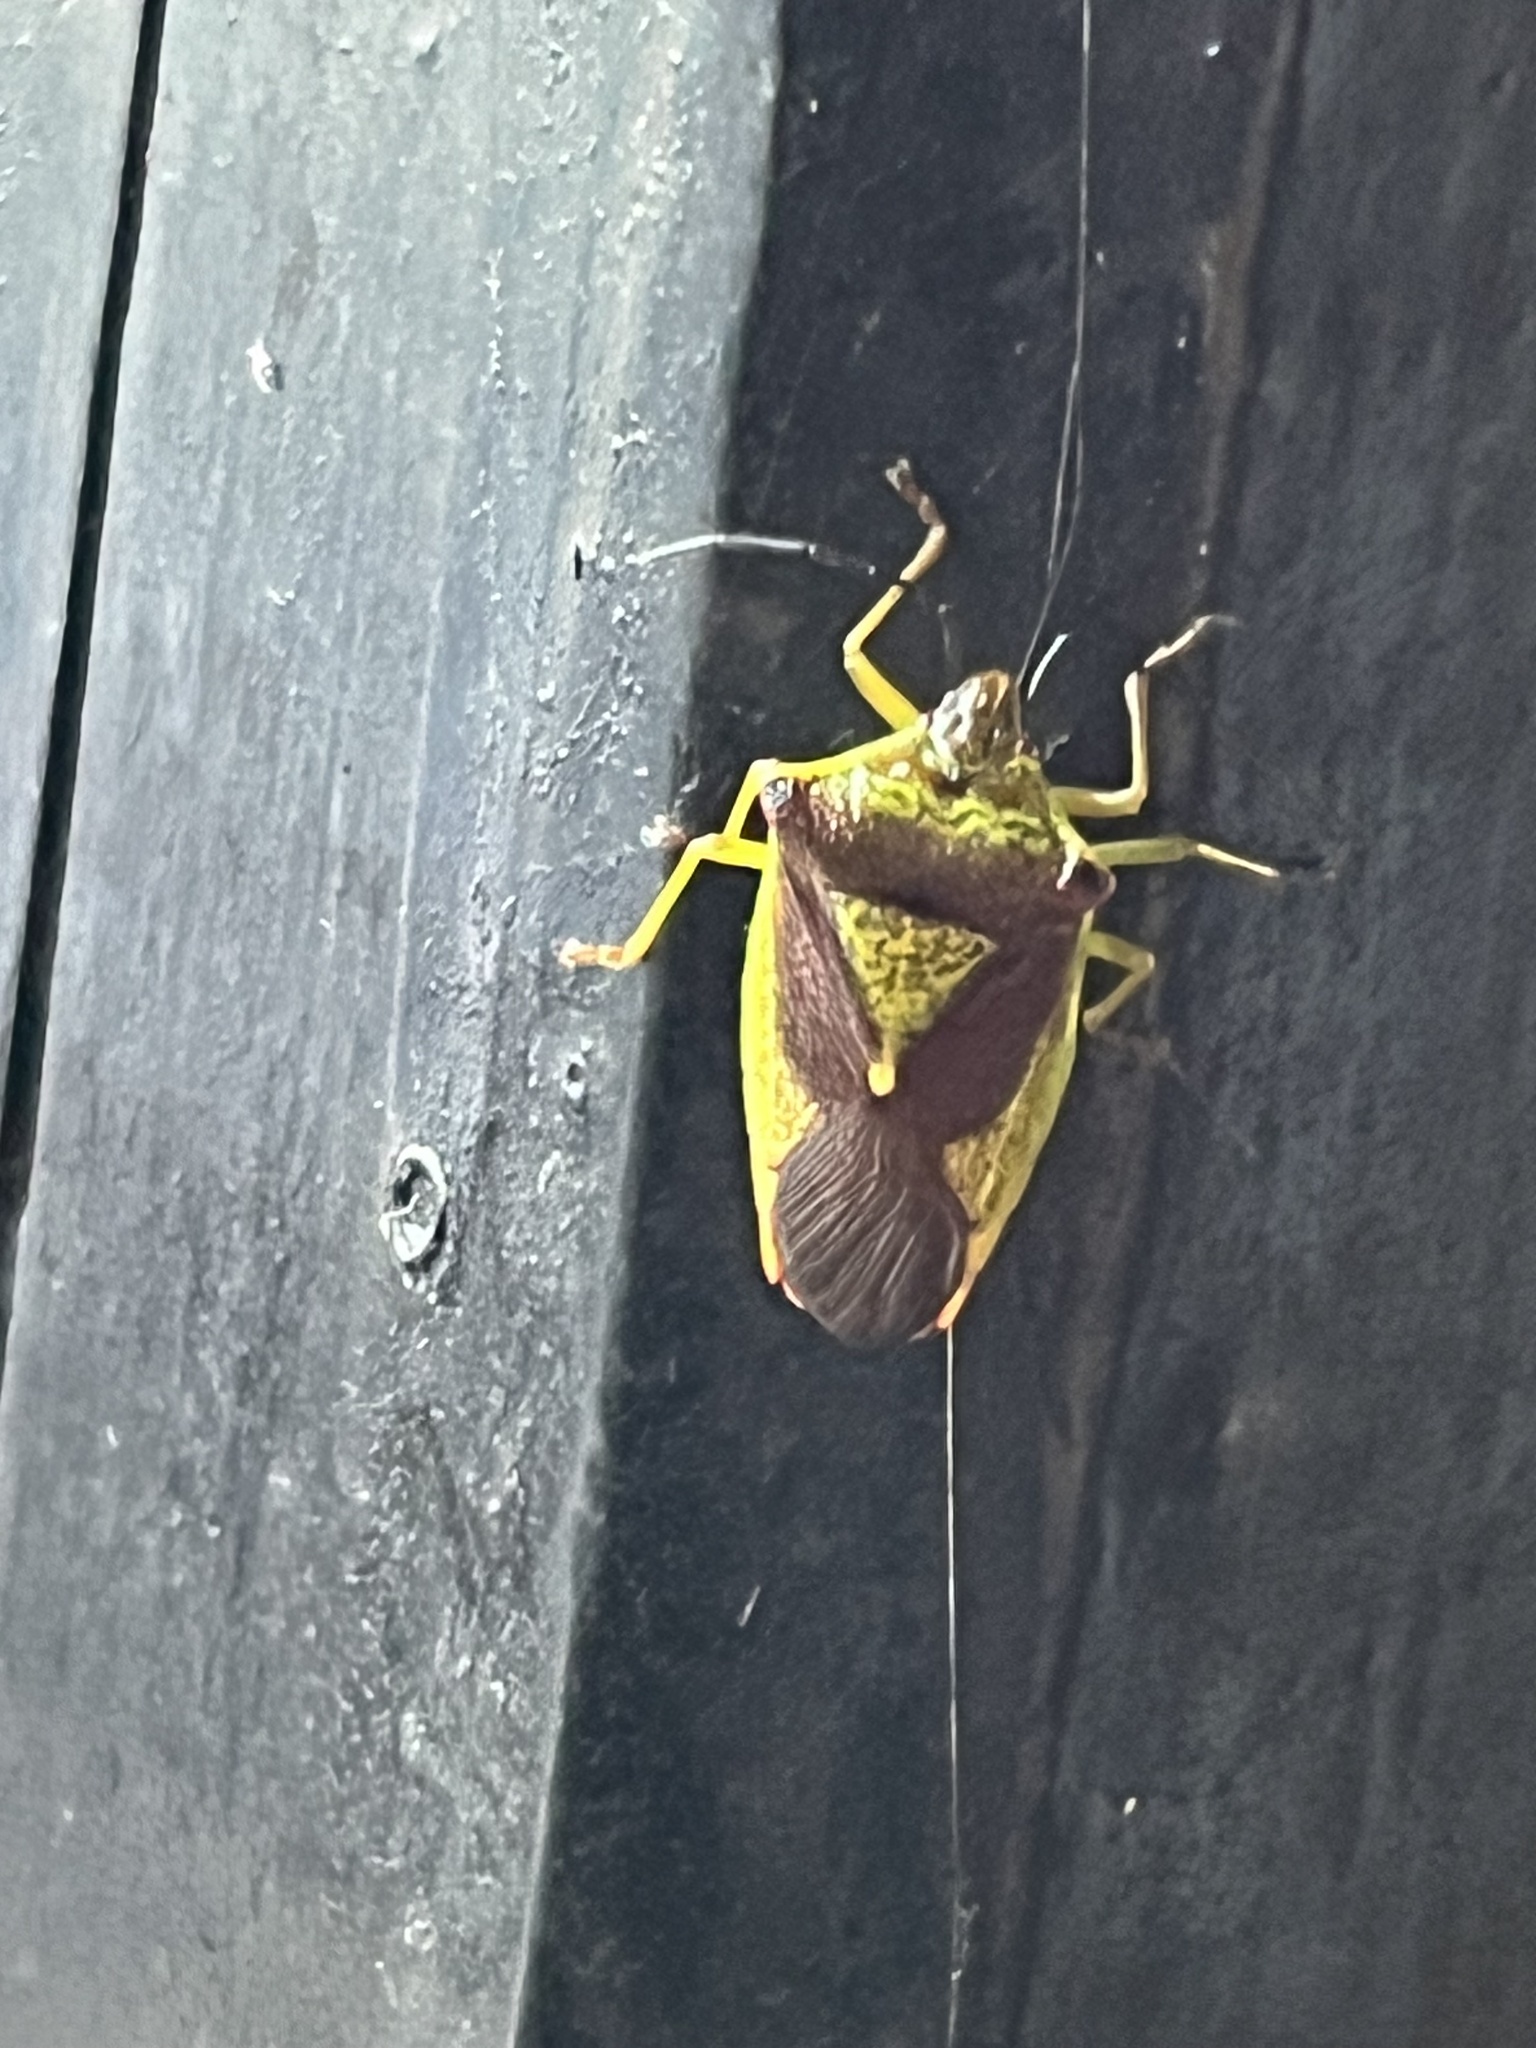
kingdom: Animalia
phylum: Arthropoda
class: Insecta
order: Hemiptera
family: Acanthosomatidae
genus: Acanthosoma
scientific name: Acanthosoma haemorrhoidale
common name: Hawthorn shieldbug
